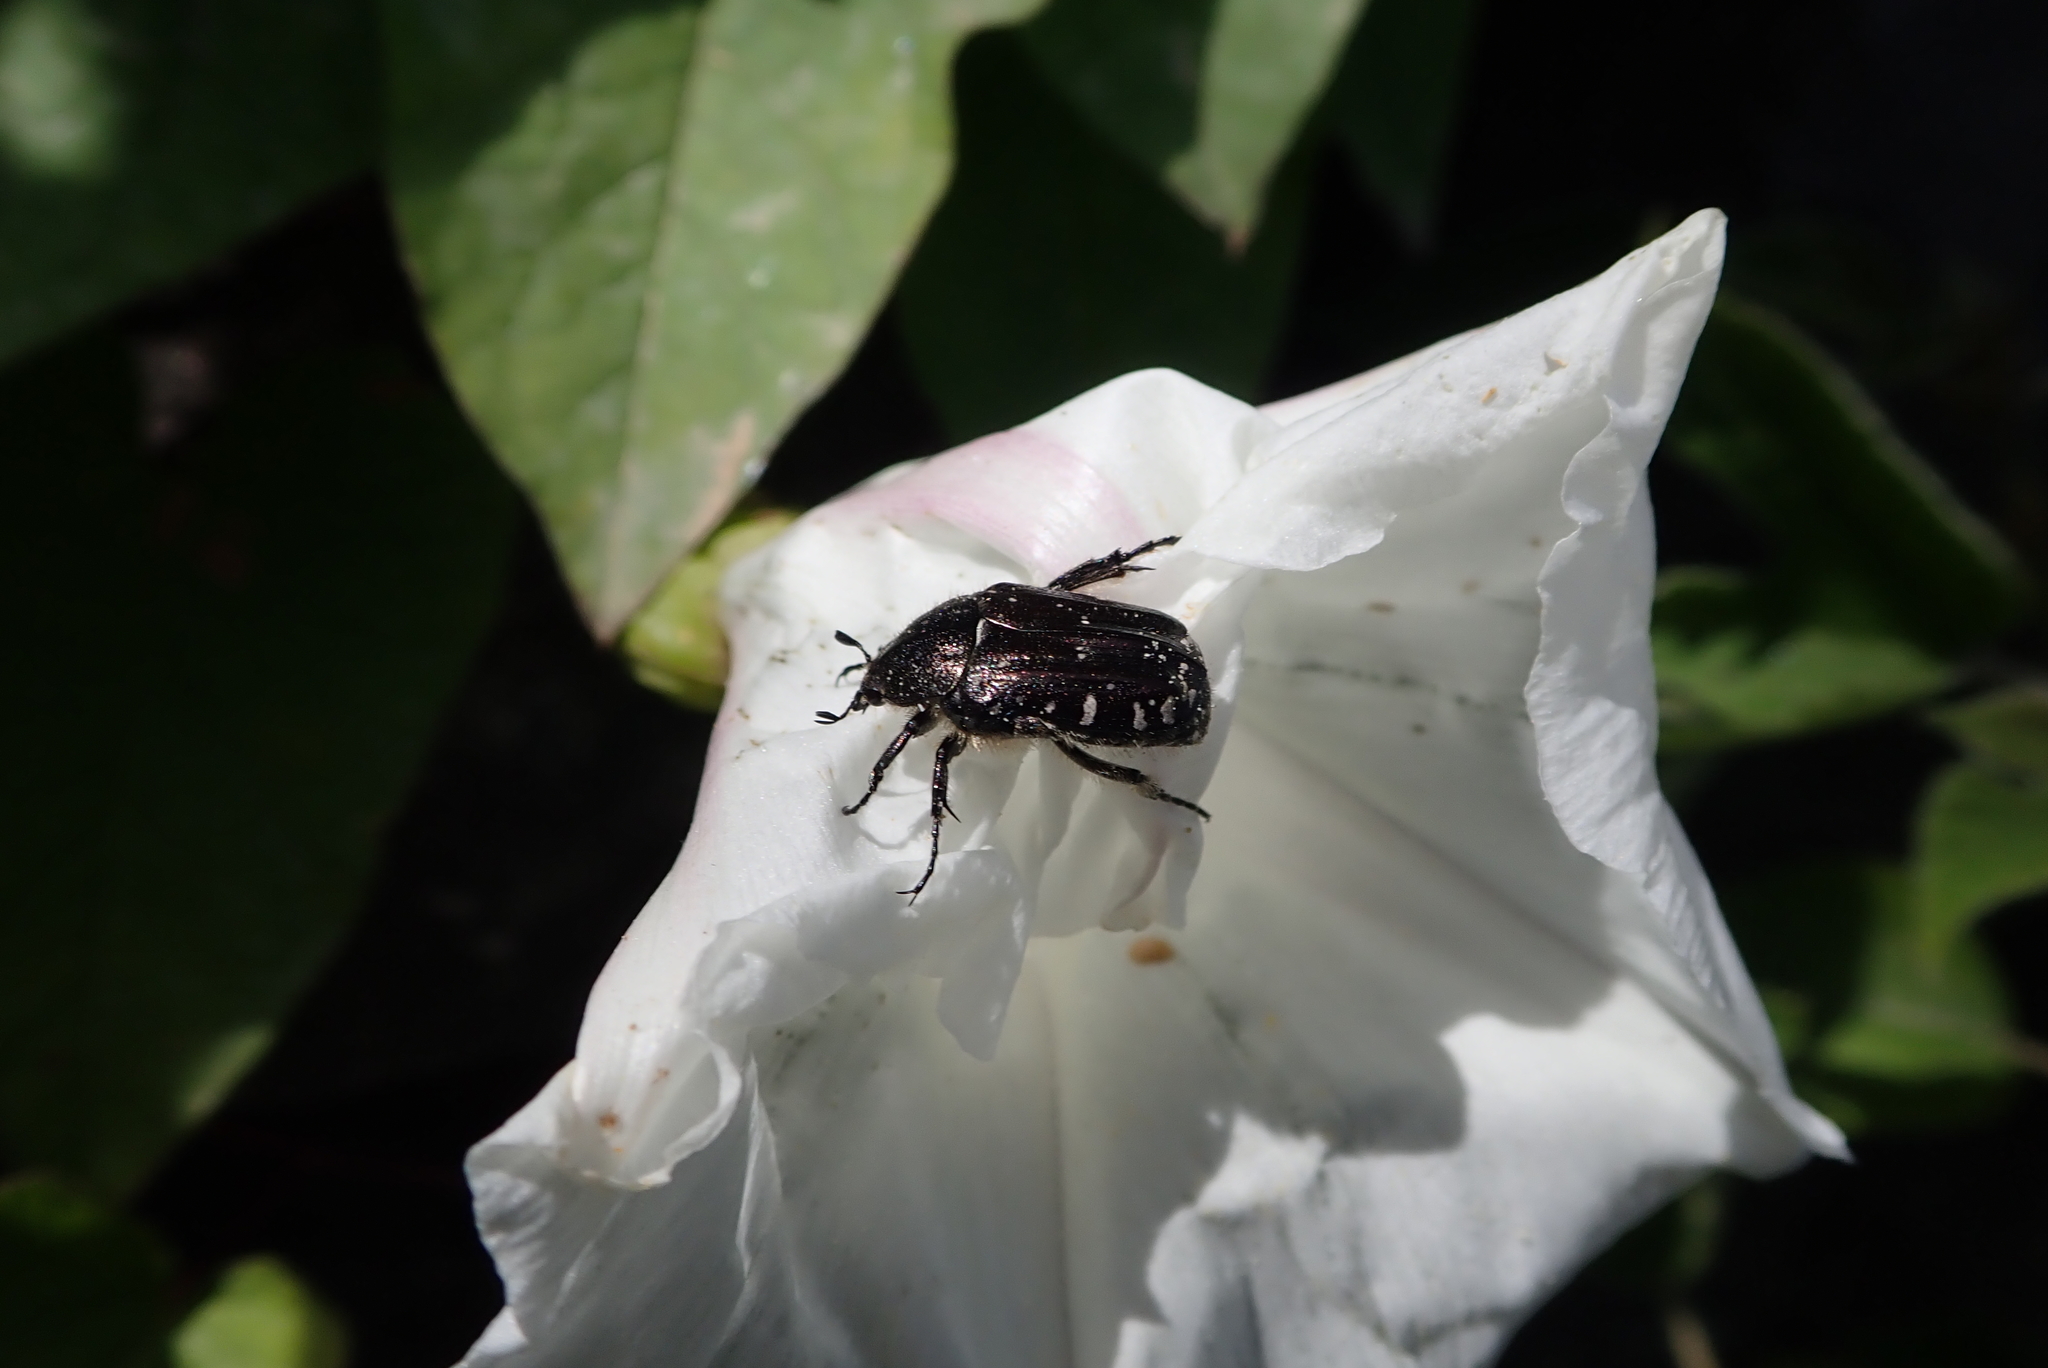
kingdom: Animalia
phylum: Arthropoda
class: Insecta
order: Coleoptera
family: Scarabaeidae
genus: Oxythyrea
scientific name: Oxythyrea funesta
